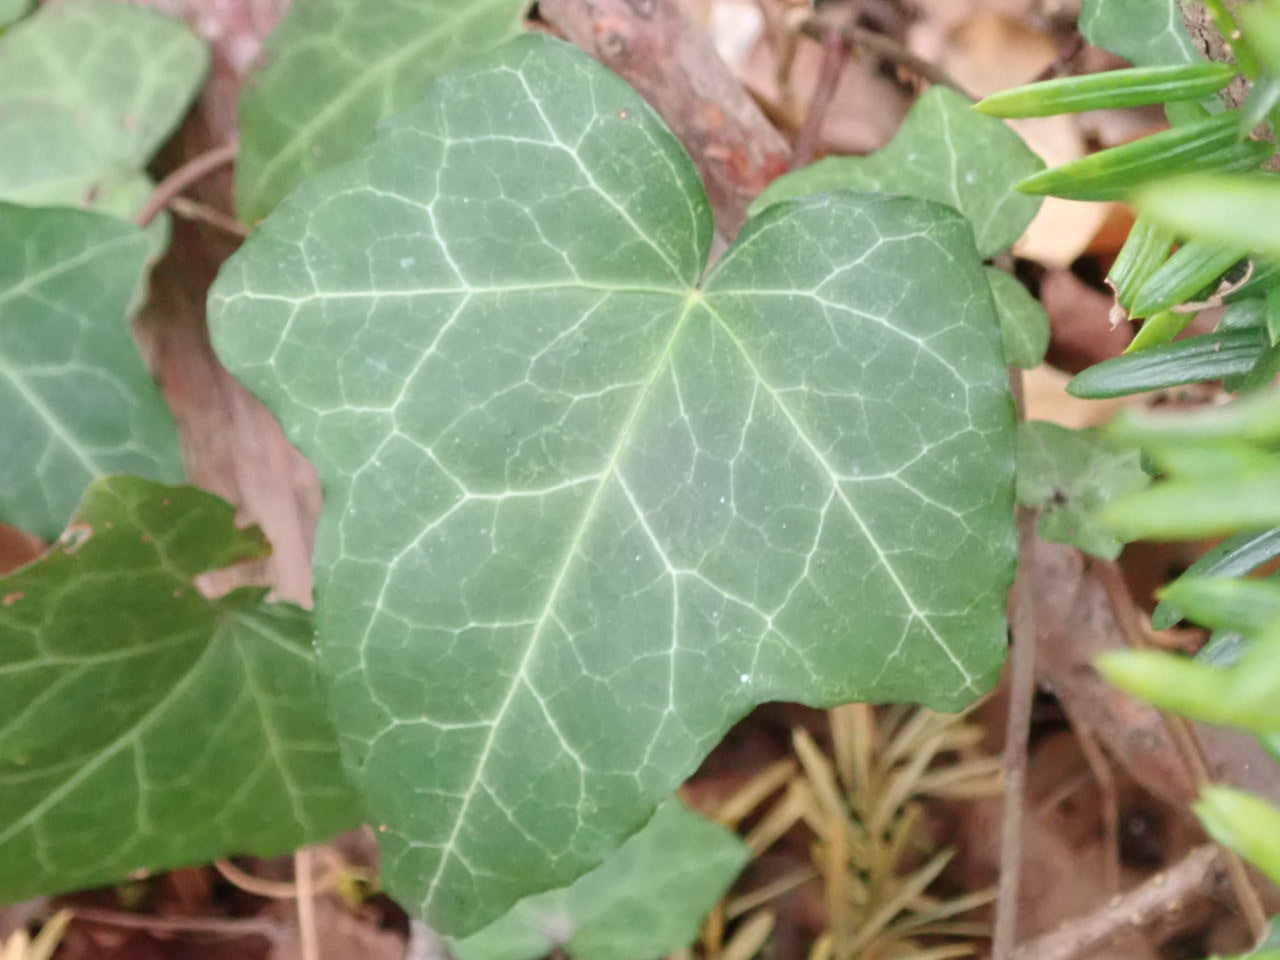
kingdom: Plantae
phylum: Tracheophyta
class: Magnoliopsida
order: Apiales
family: Araliaceae
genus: Hedera
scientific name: Hedera helix
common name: Ivy
